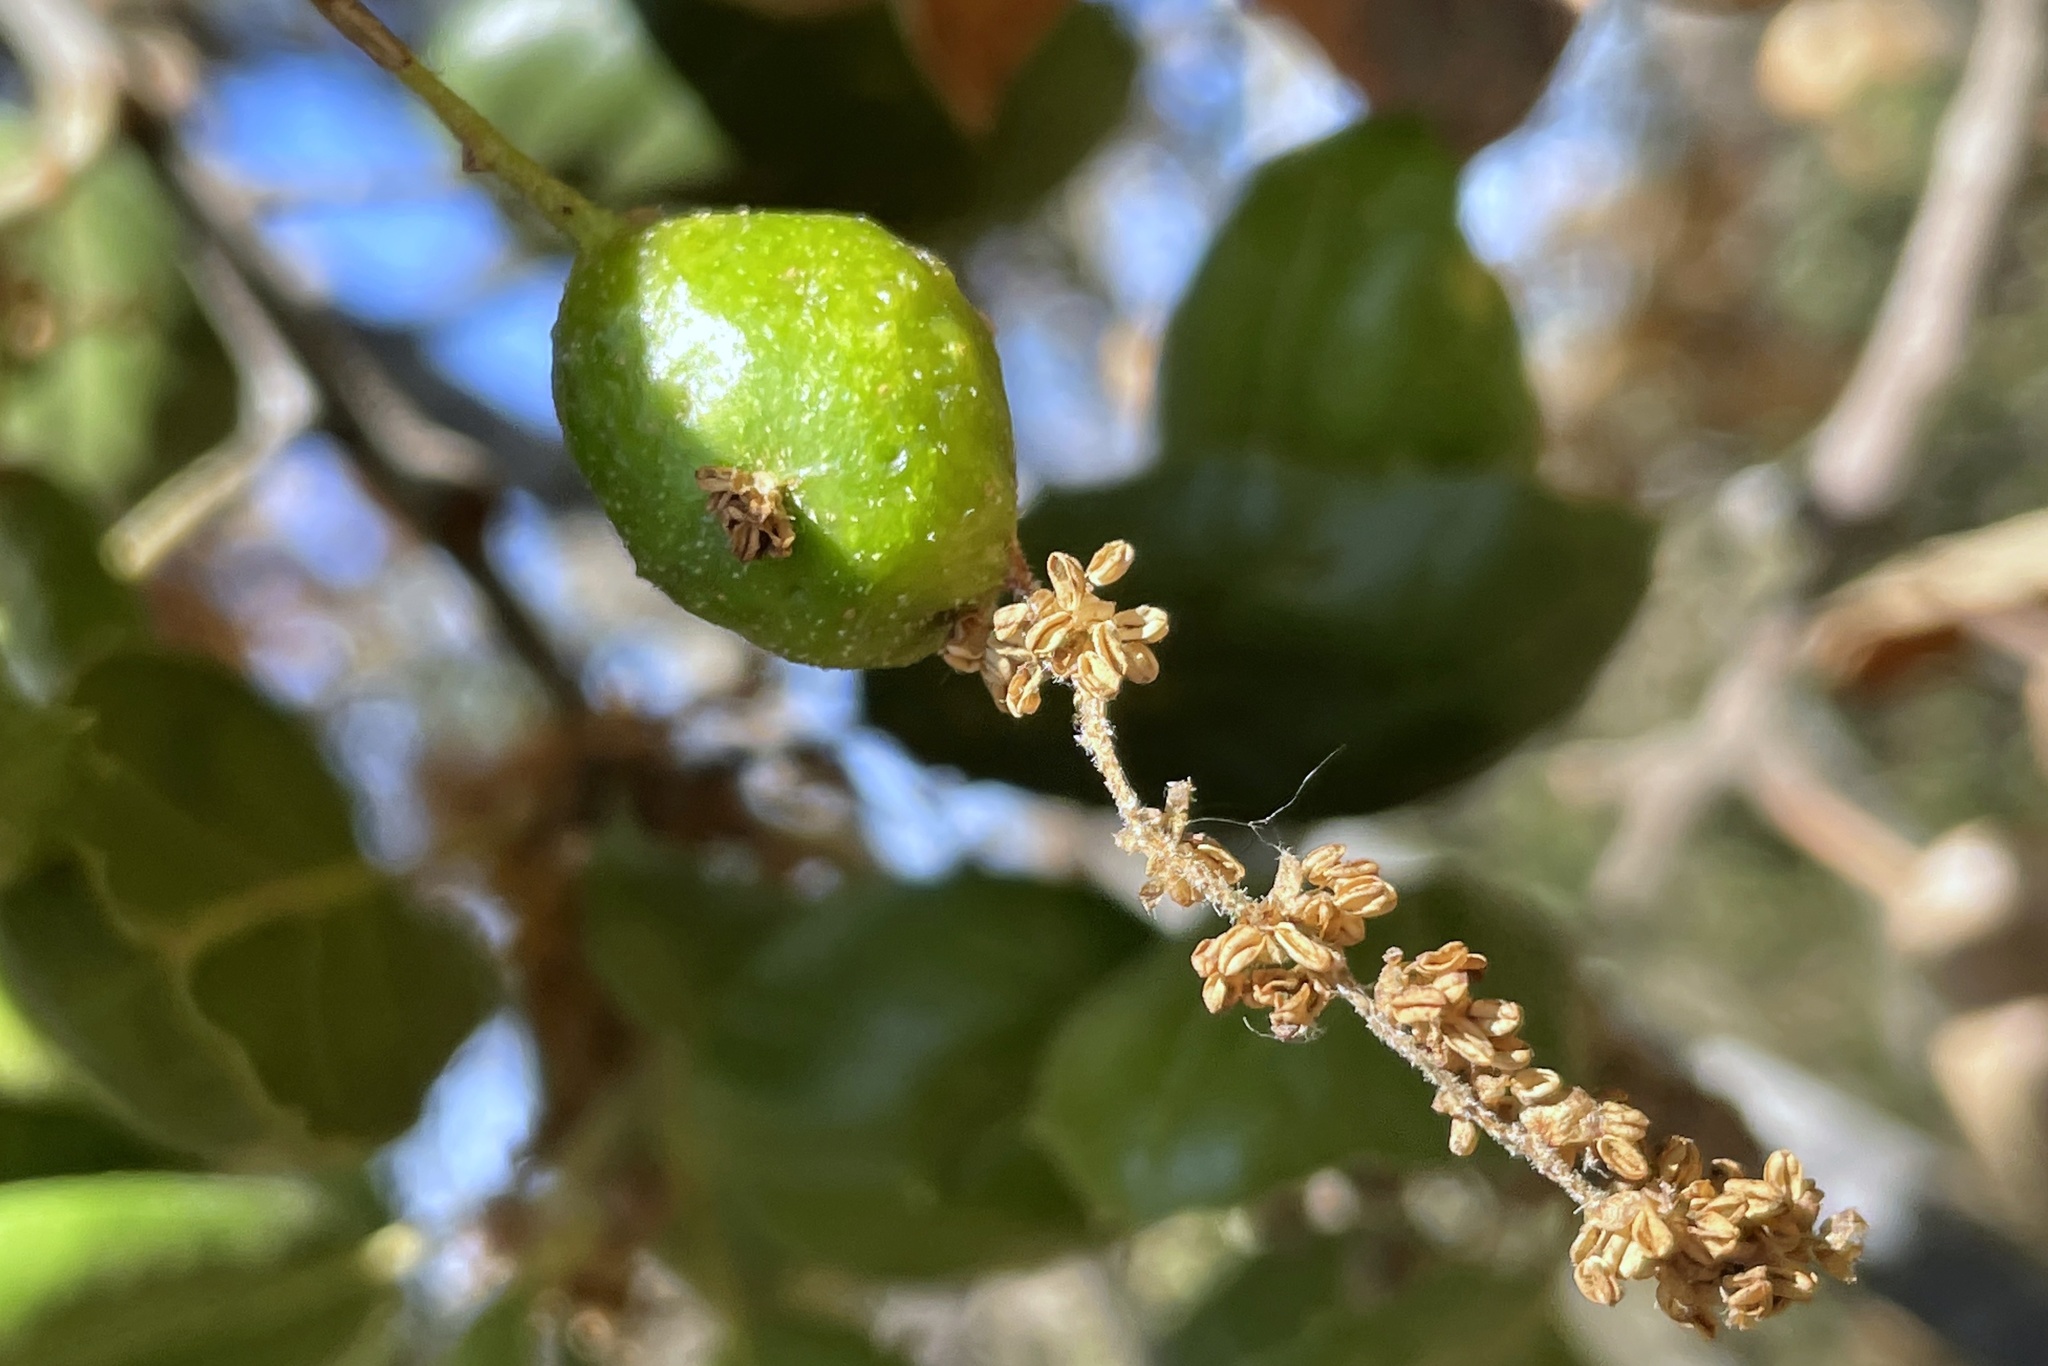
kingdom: Animalia
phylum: Arthropoda
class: Insecta
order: Hymenoptera
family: Cynipidae
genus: Callirhytis
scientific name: Callirhytis
